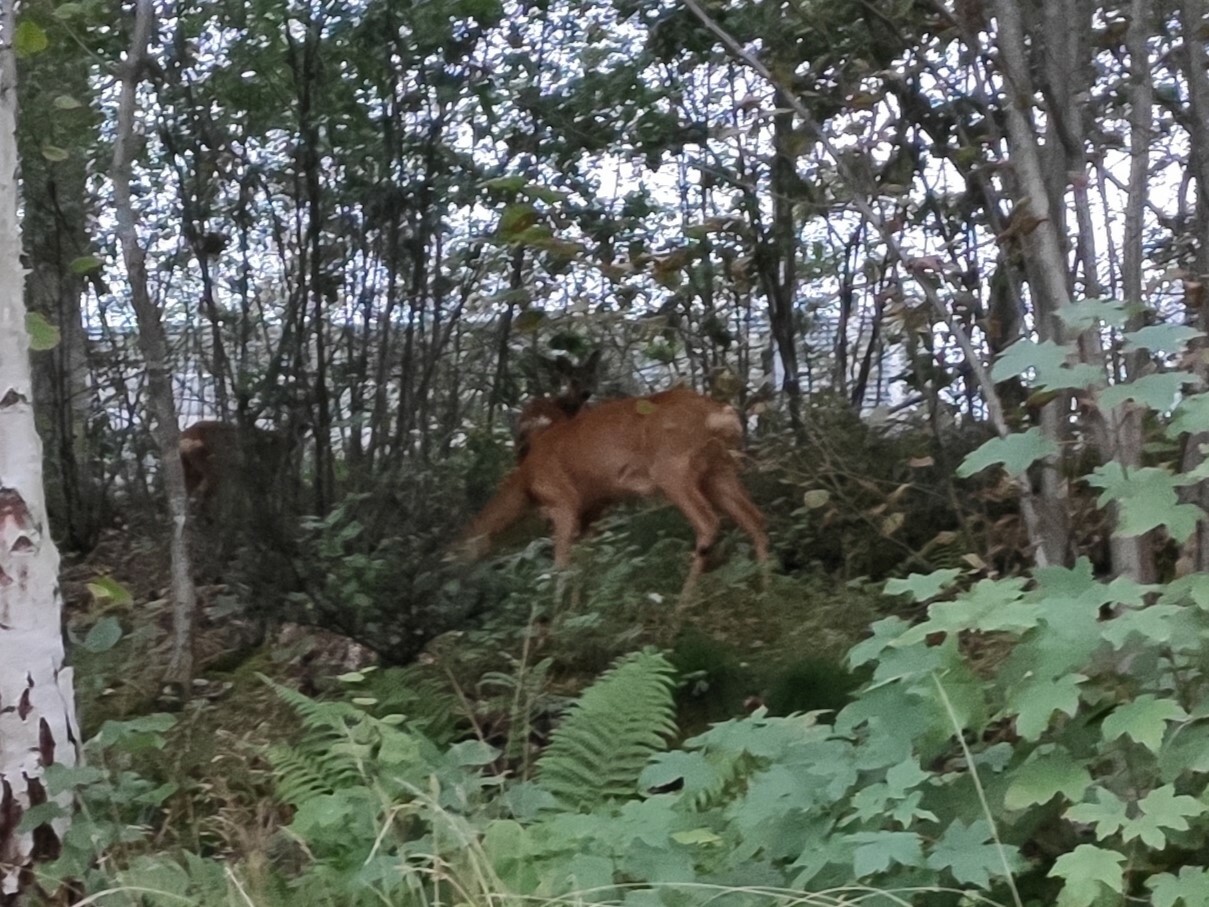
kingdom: Animalia
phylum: Chordata
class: Mammalia
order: Artiodactyla
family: Cervidae
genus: Capreolus
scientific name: Capreolus capreolus
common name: Western roe deer
